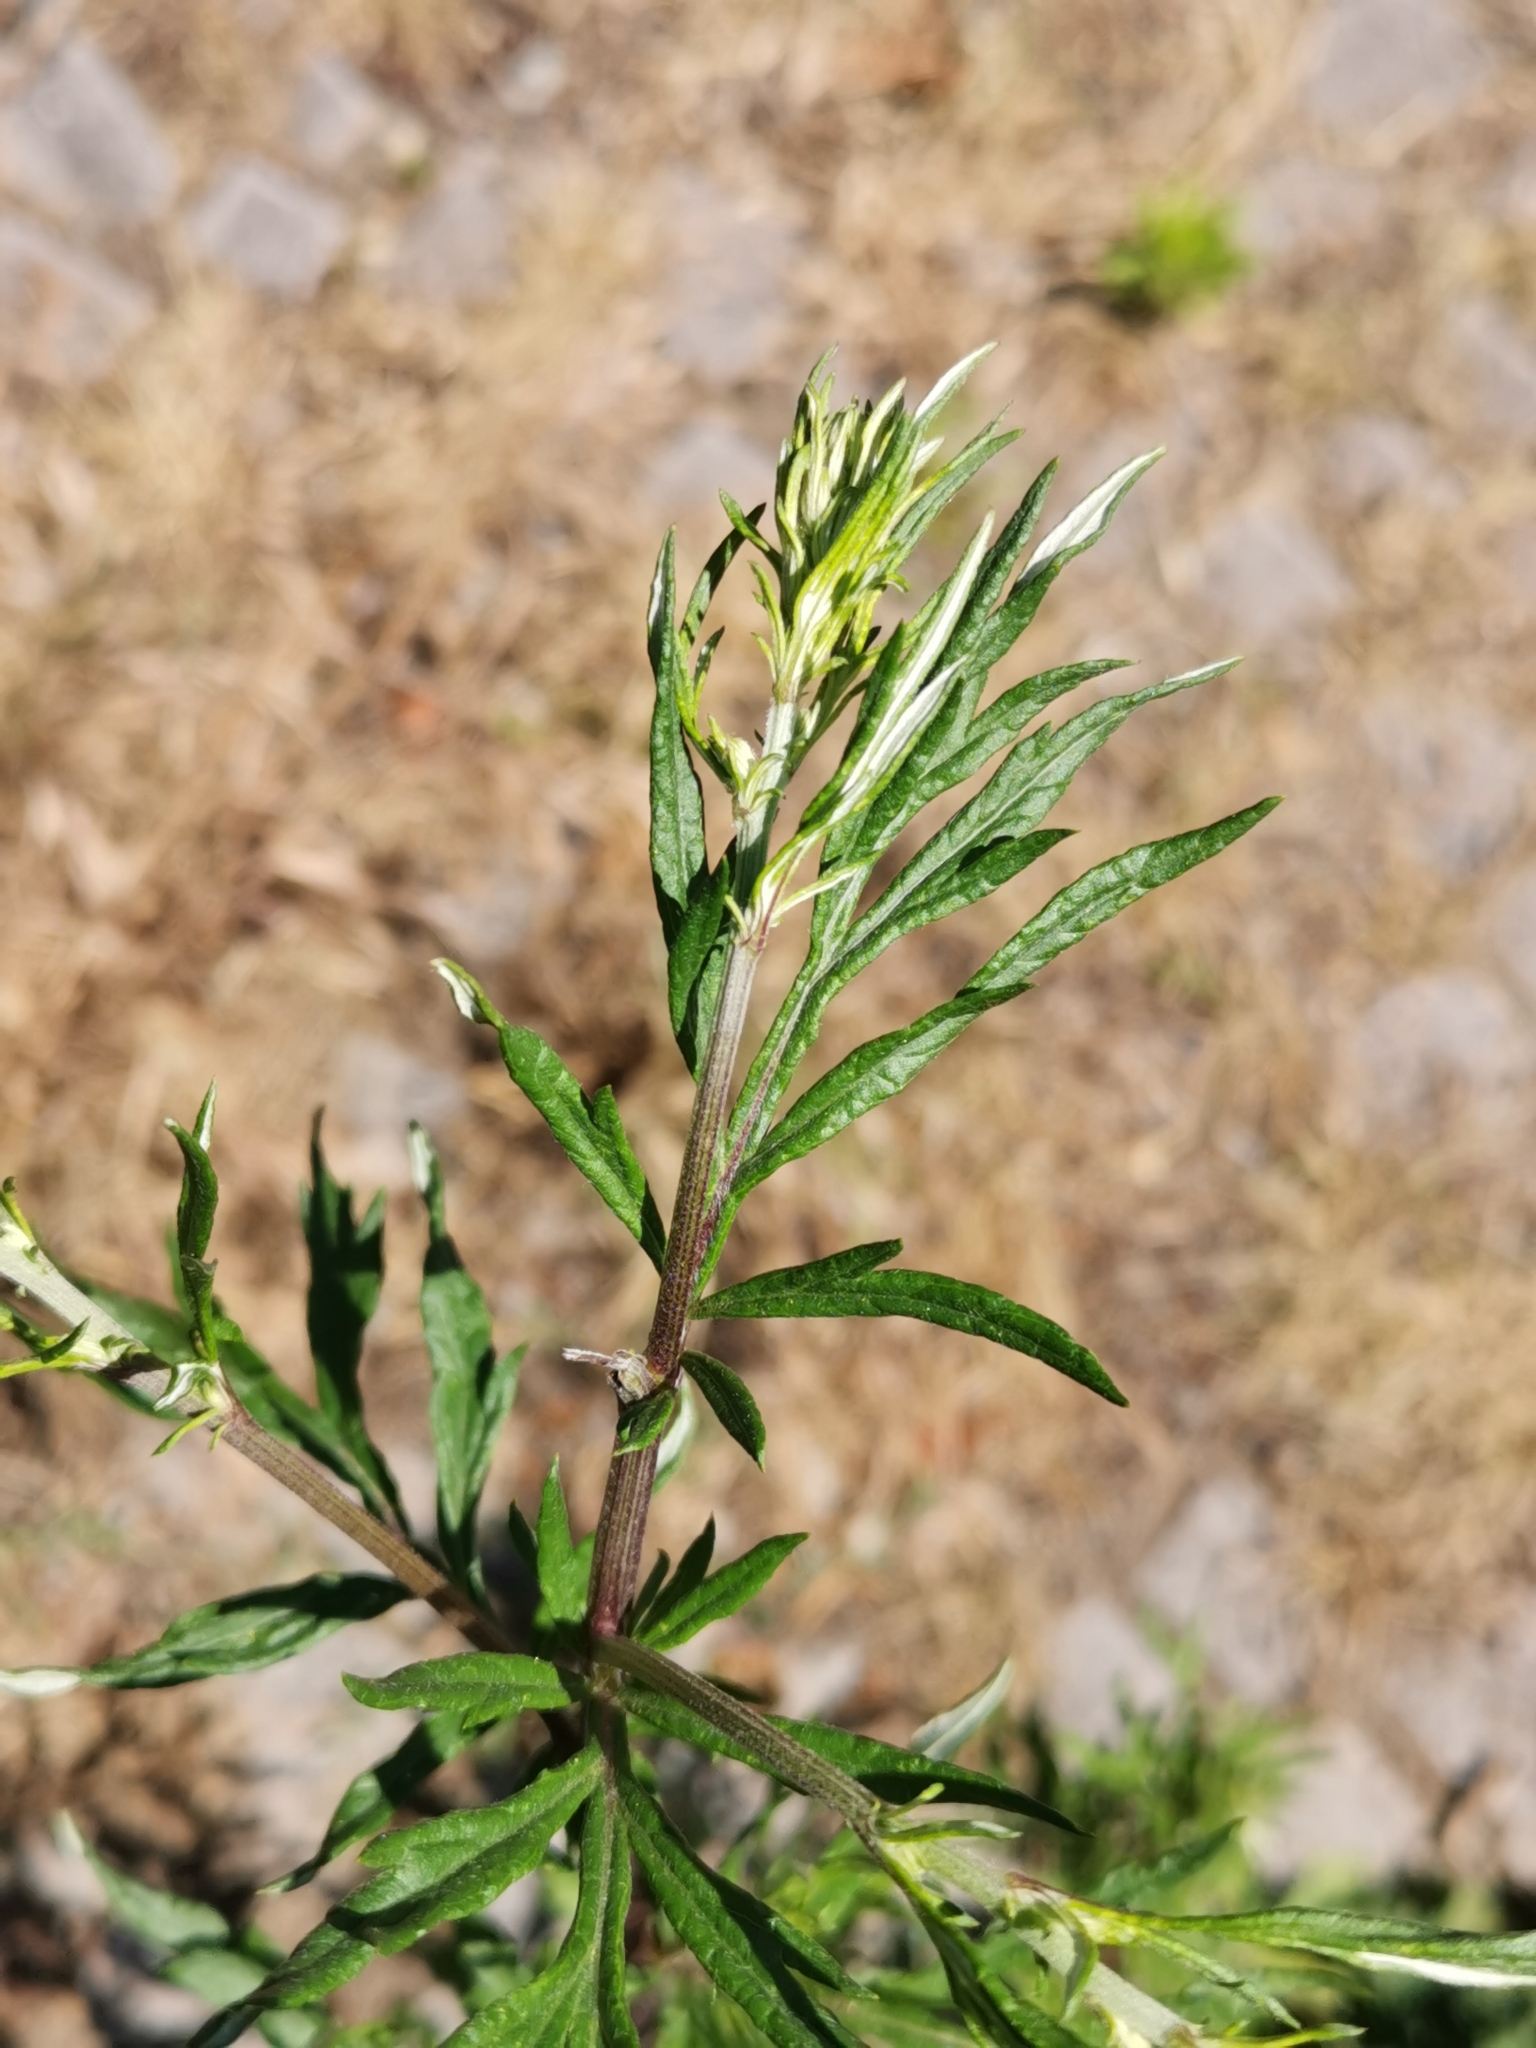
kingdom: Plantae
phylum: Tracheophyta
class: Magnoliopsida
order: Asterales
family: Asteraceae
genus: Artemisia
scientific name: Artemisia vulgaris
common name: Mugwort
